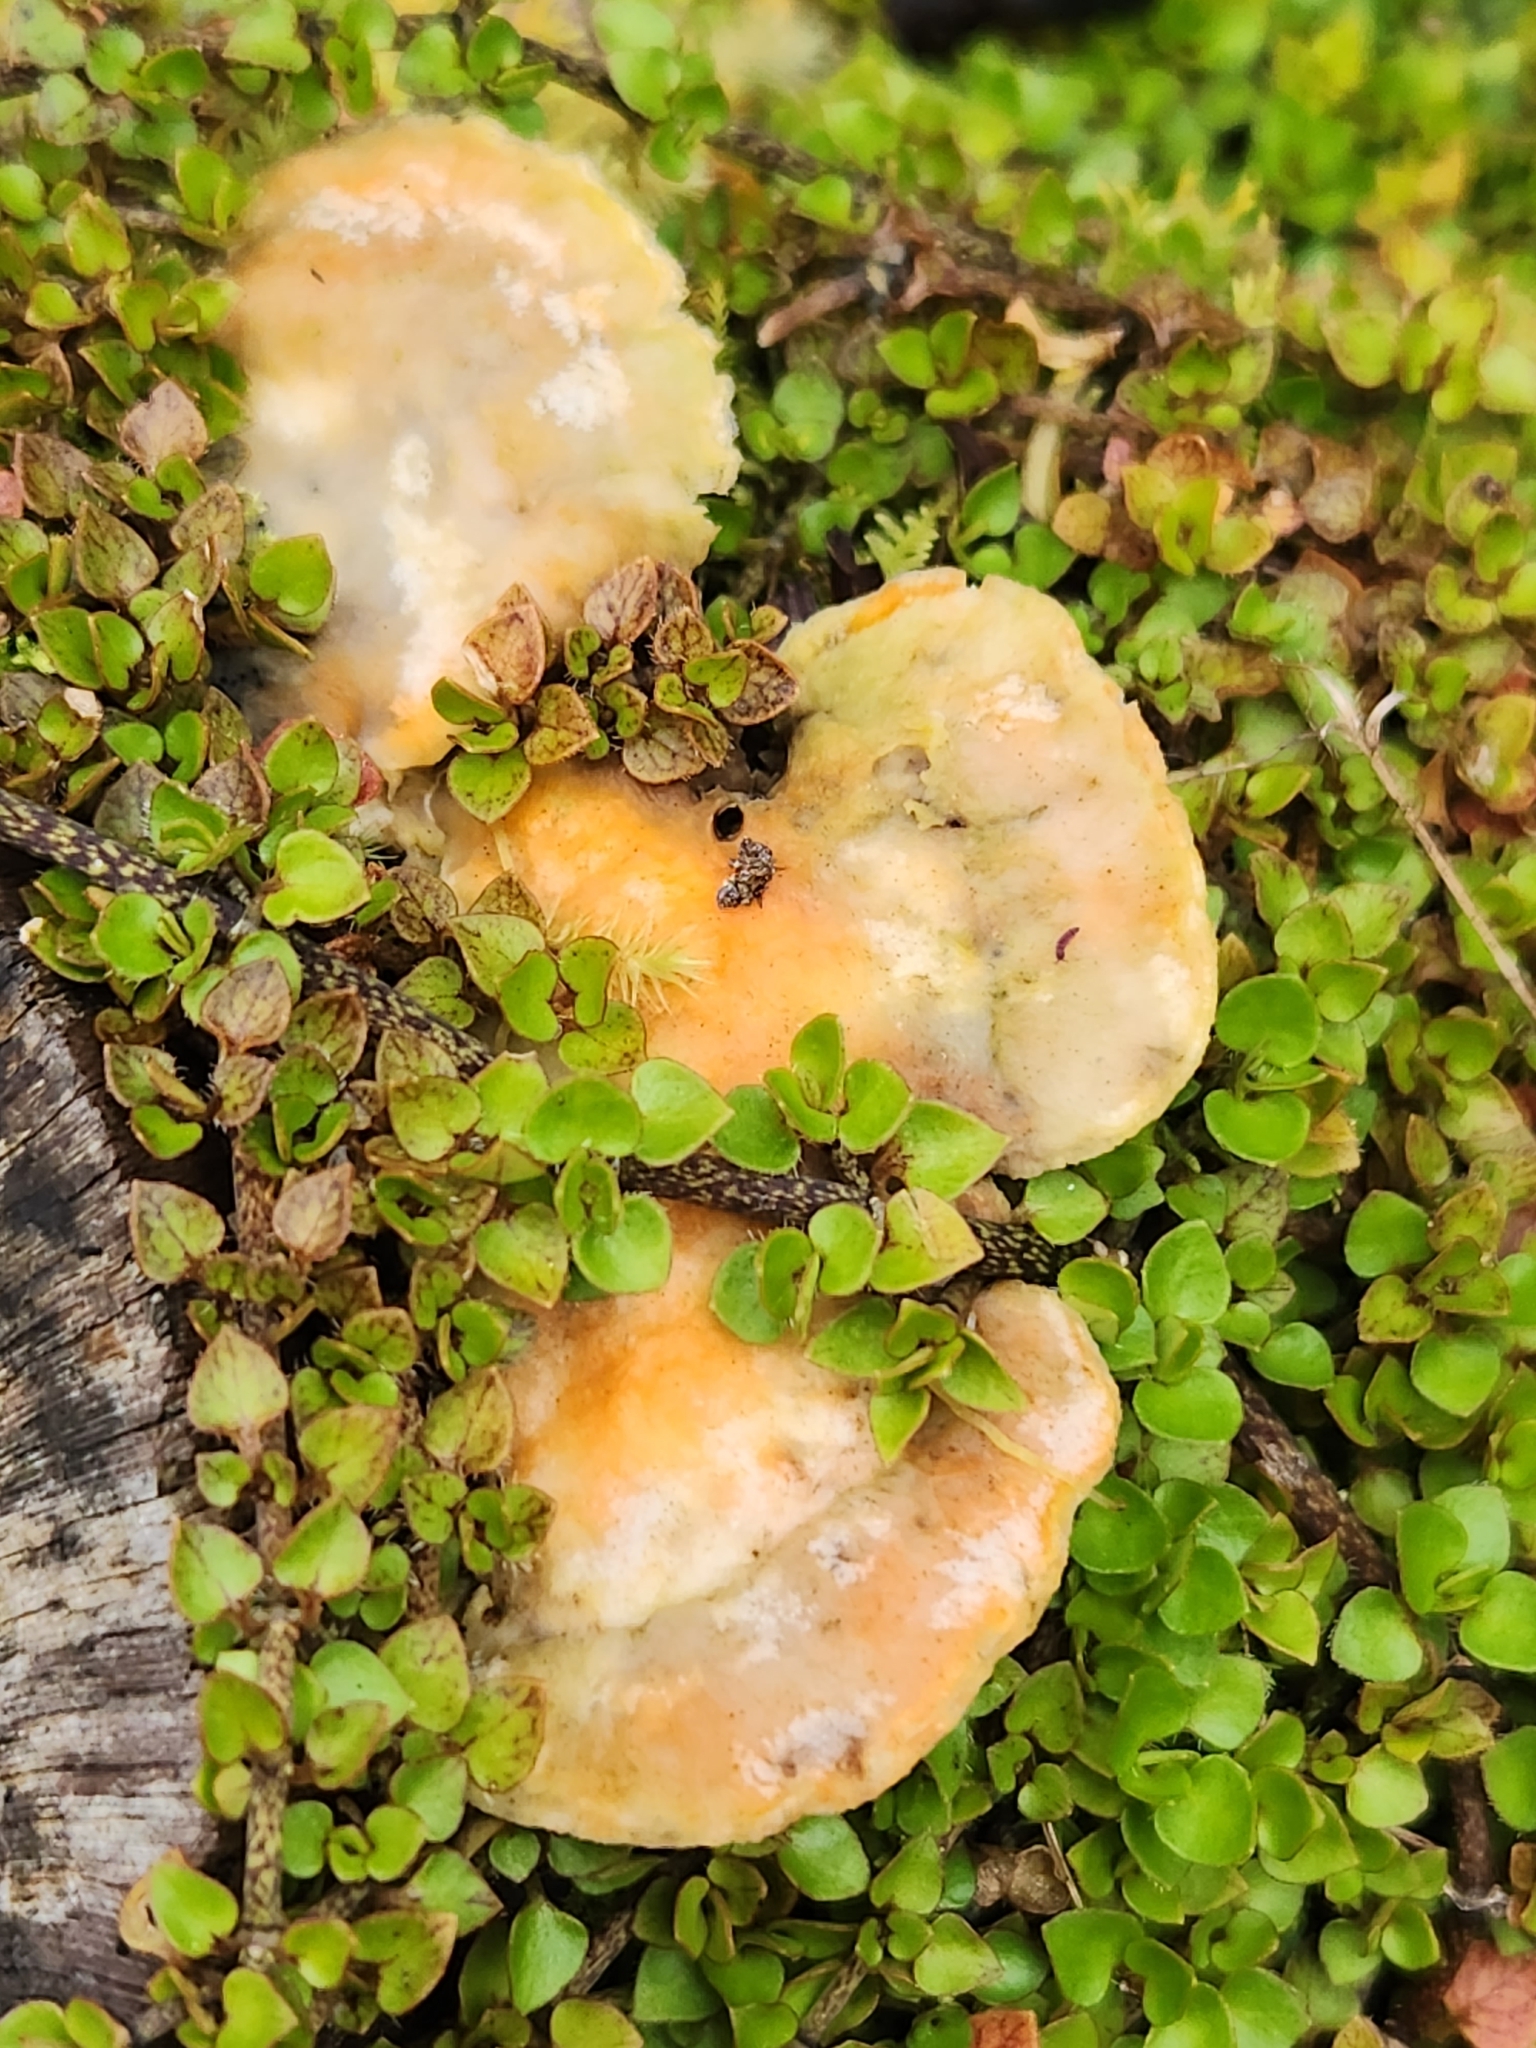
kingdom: Fungi
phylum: Basidiomycota
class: Agaricomycetes
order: Polyporales
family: Polyporaceae
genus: Trametes
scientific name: Trametes coccinea
